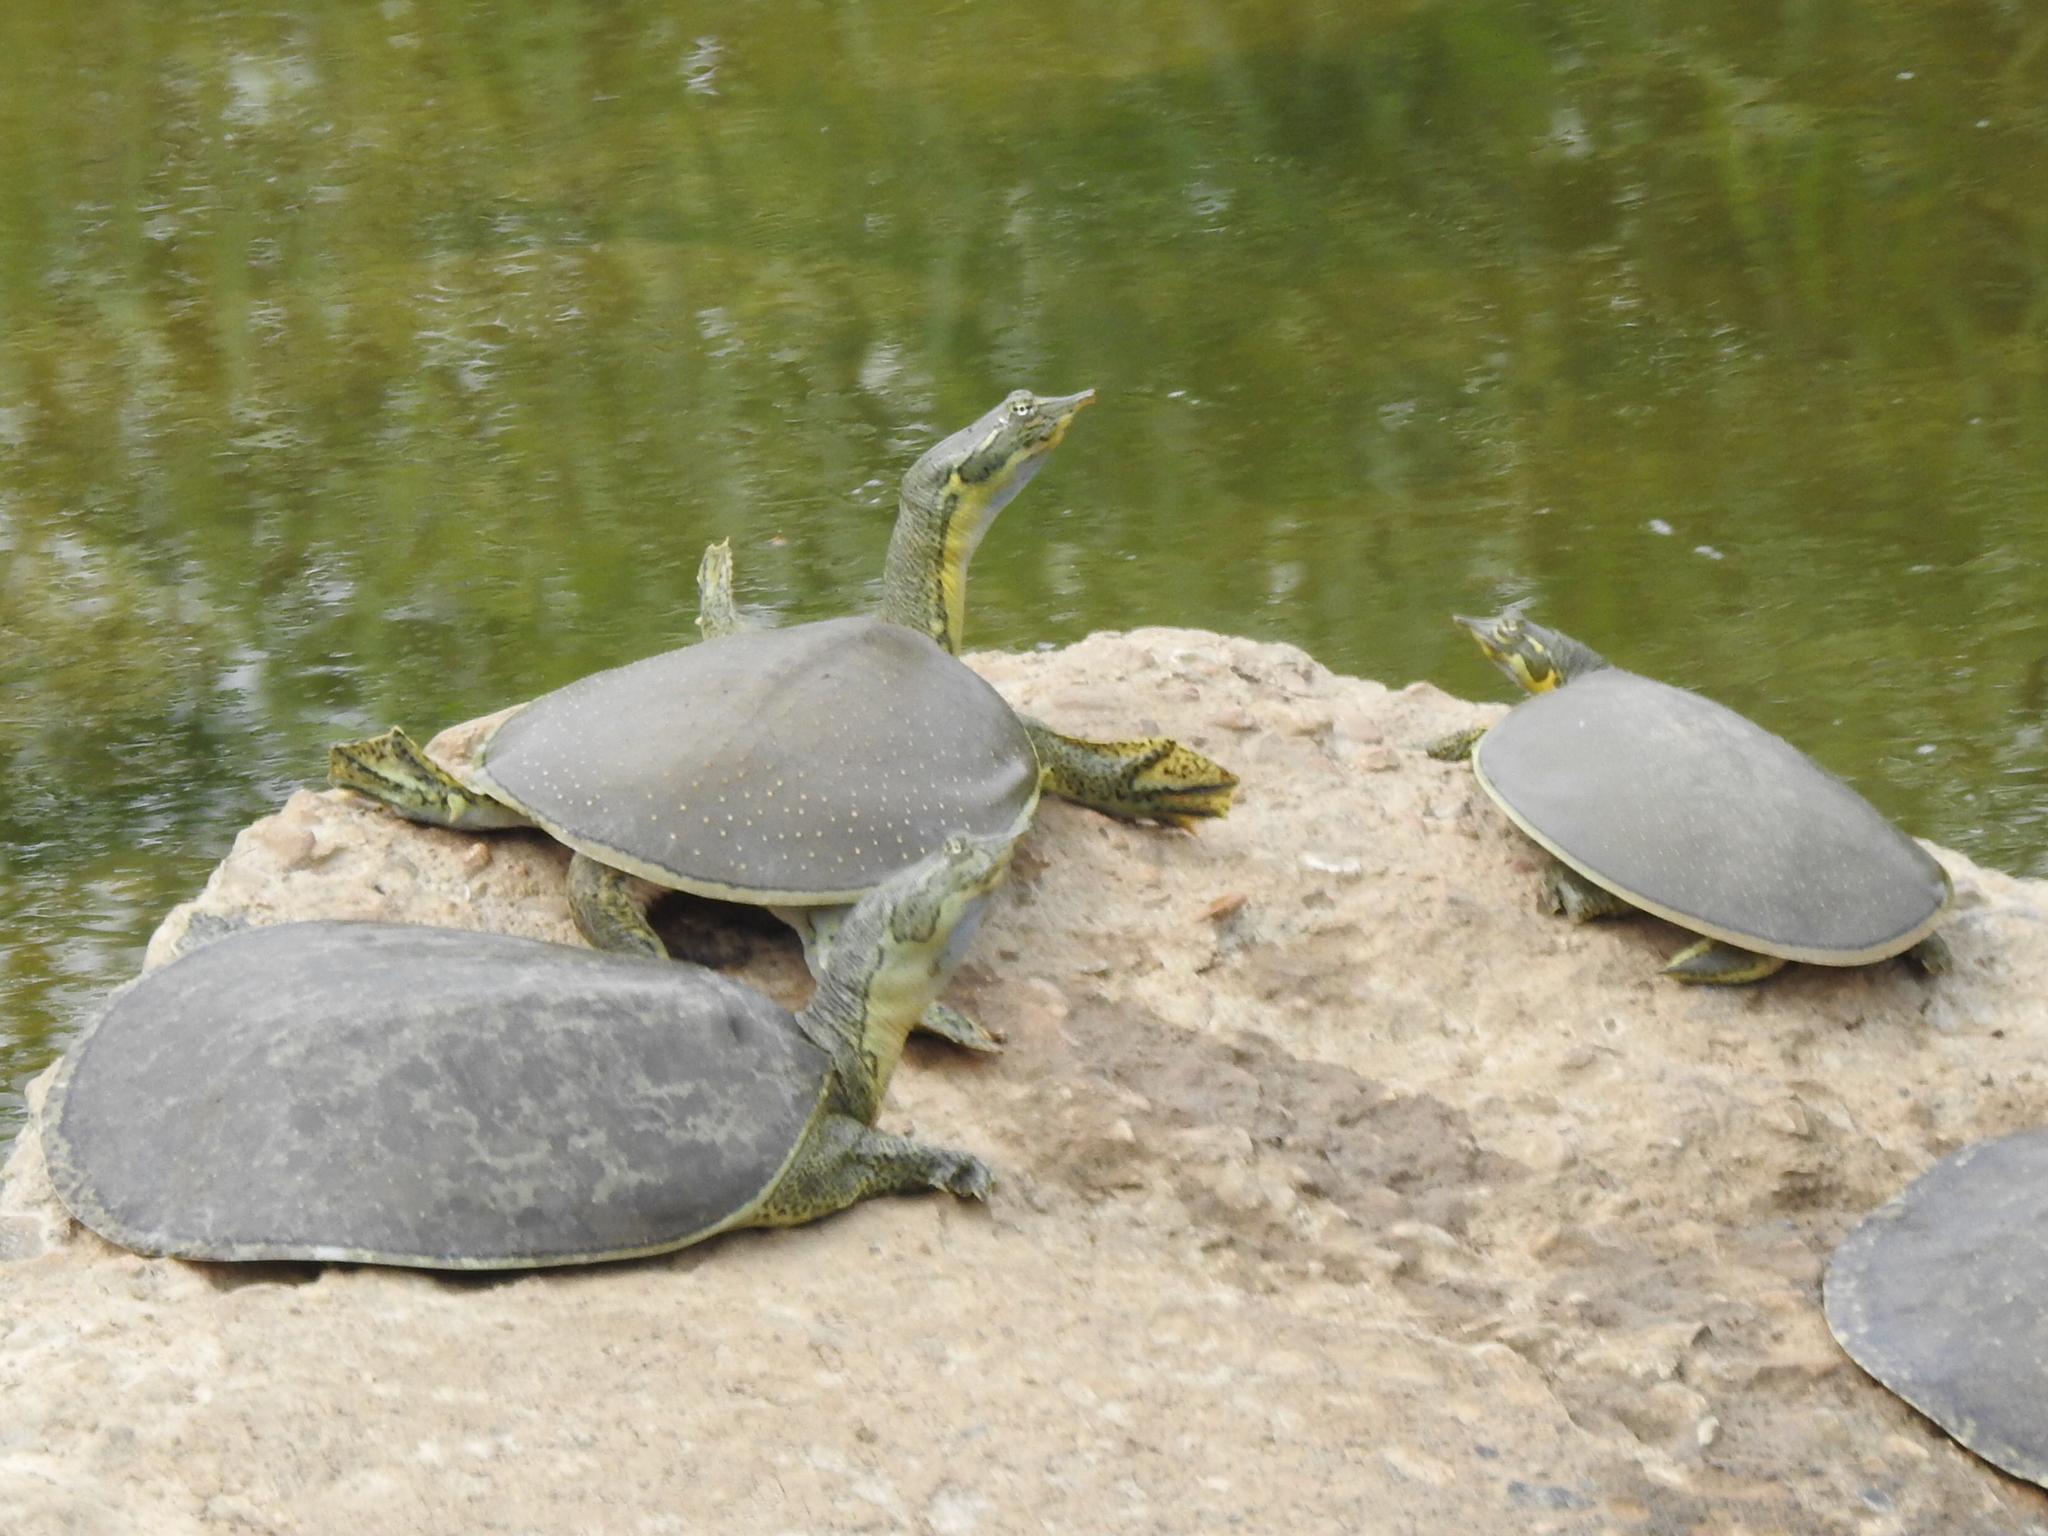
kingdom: Animalia
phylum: Chordata
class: Testudines
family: Trionychidae
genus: Apalone
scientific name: Apalone spinifera
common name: Spiny softshell turtle
